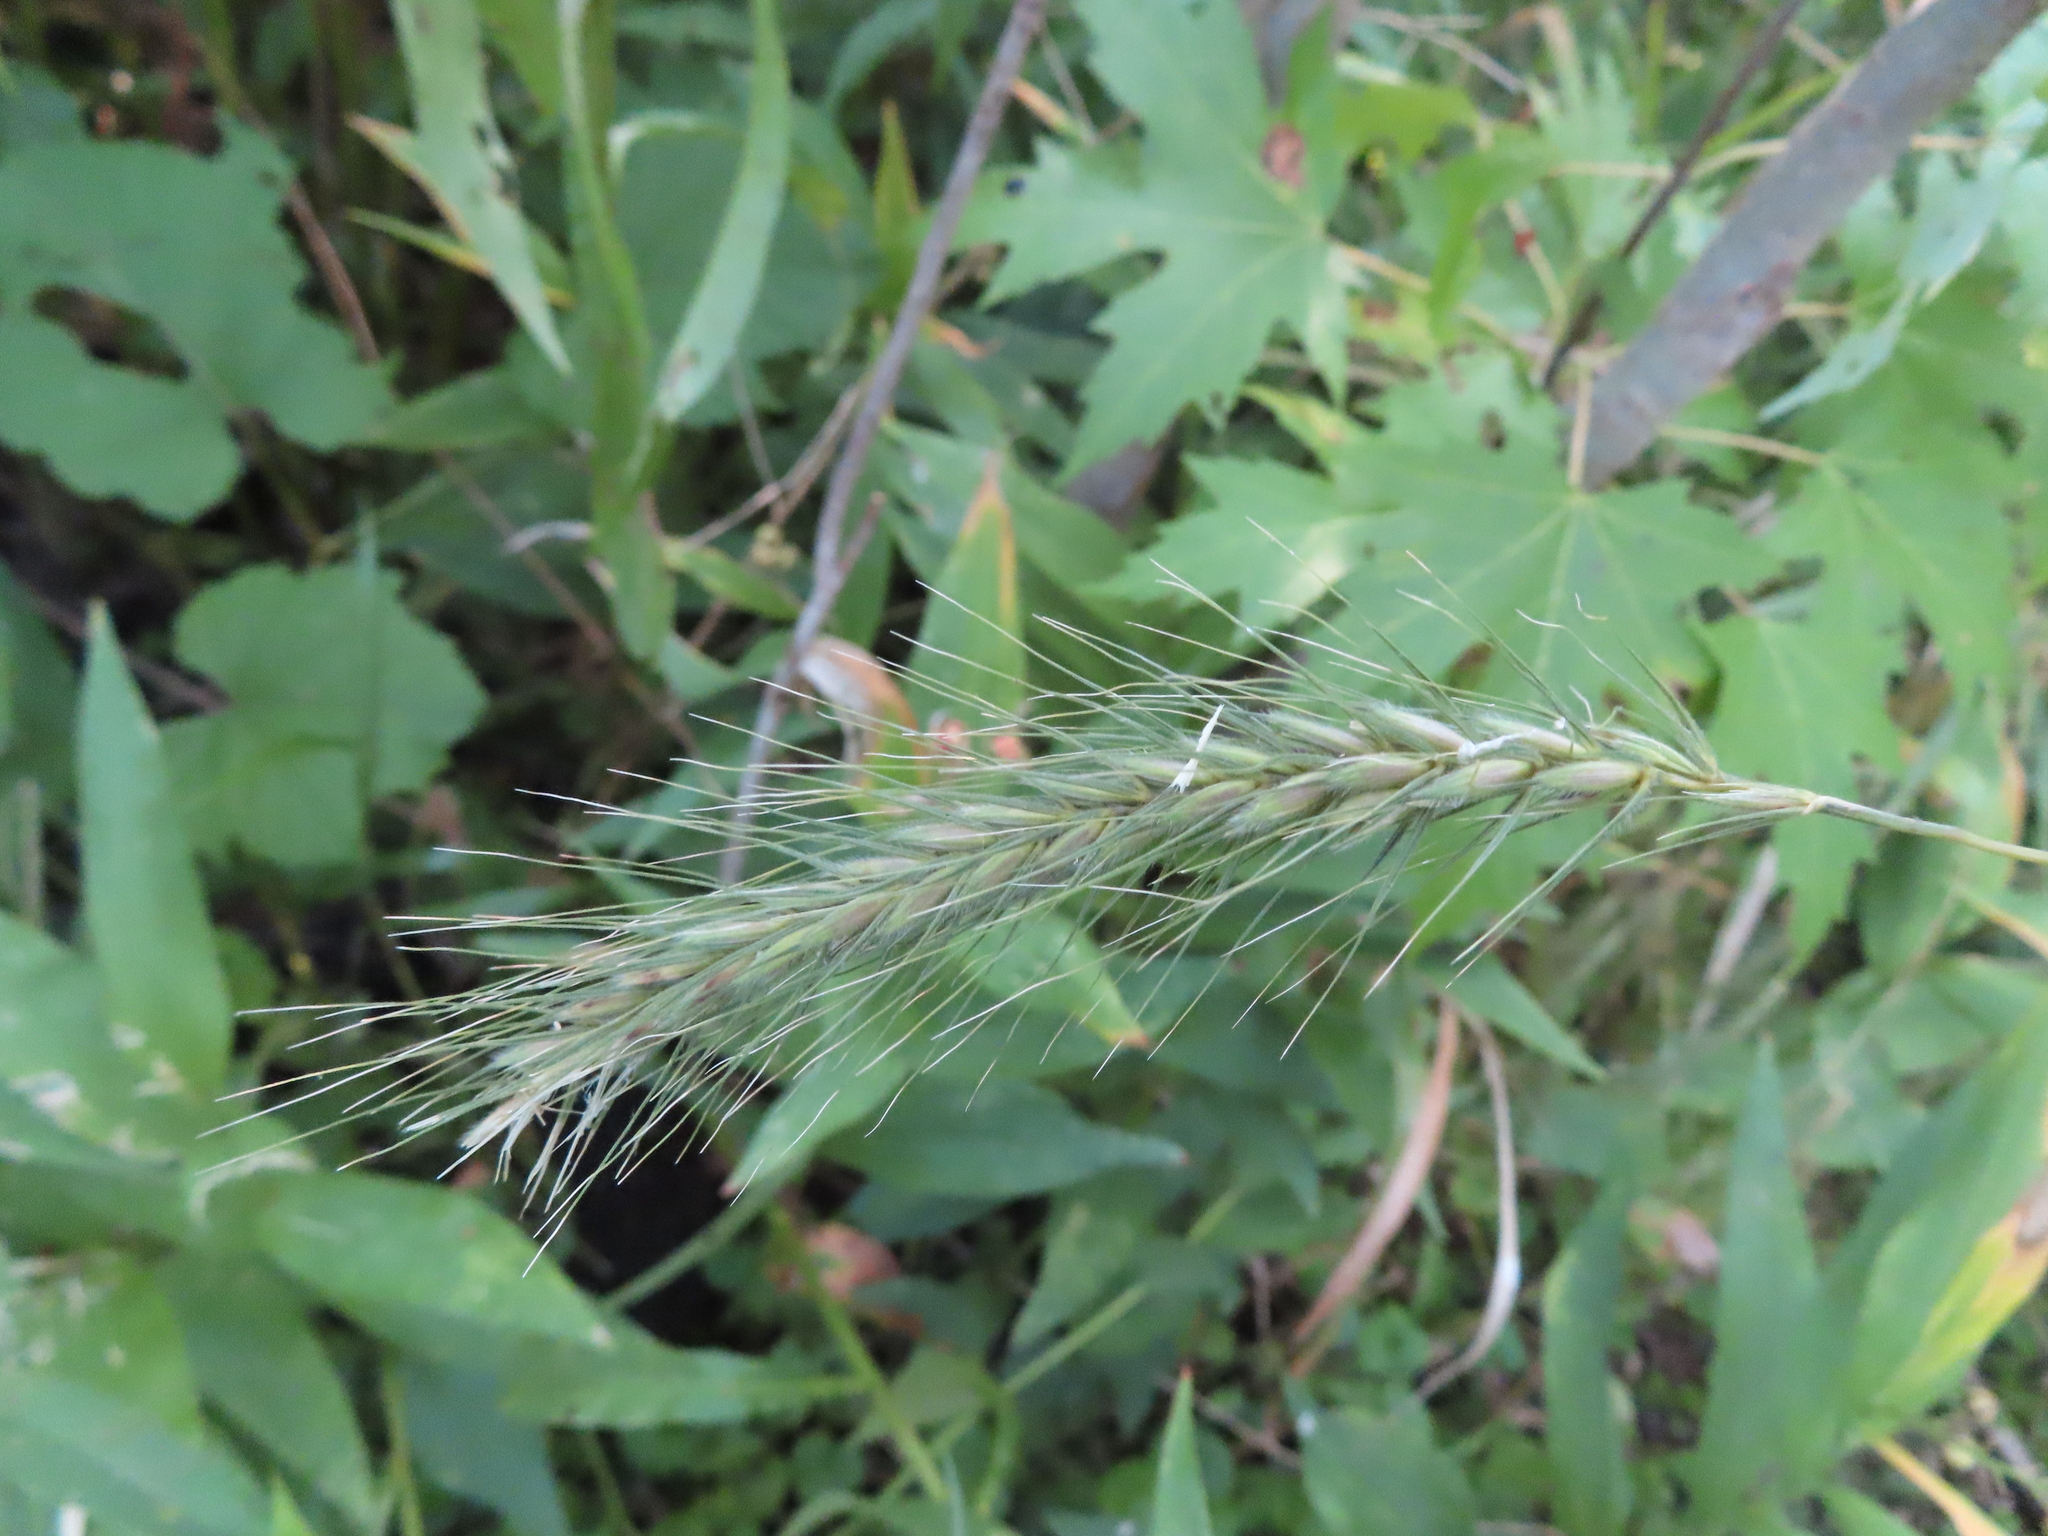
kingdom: Plantae
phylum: Tracheophyta
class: Liliopsida
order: Poales
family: Poaceae
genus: Elymus
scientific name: Elymus villosus
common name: Downy wild rye
